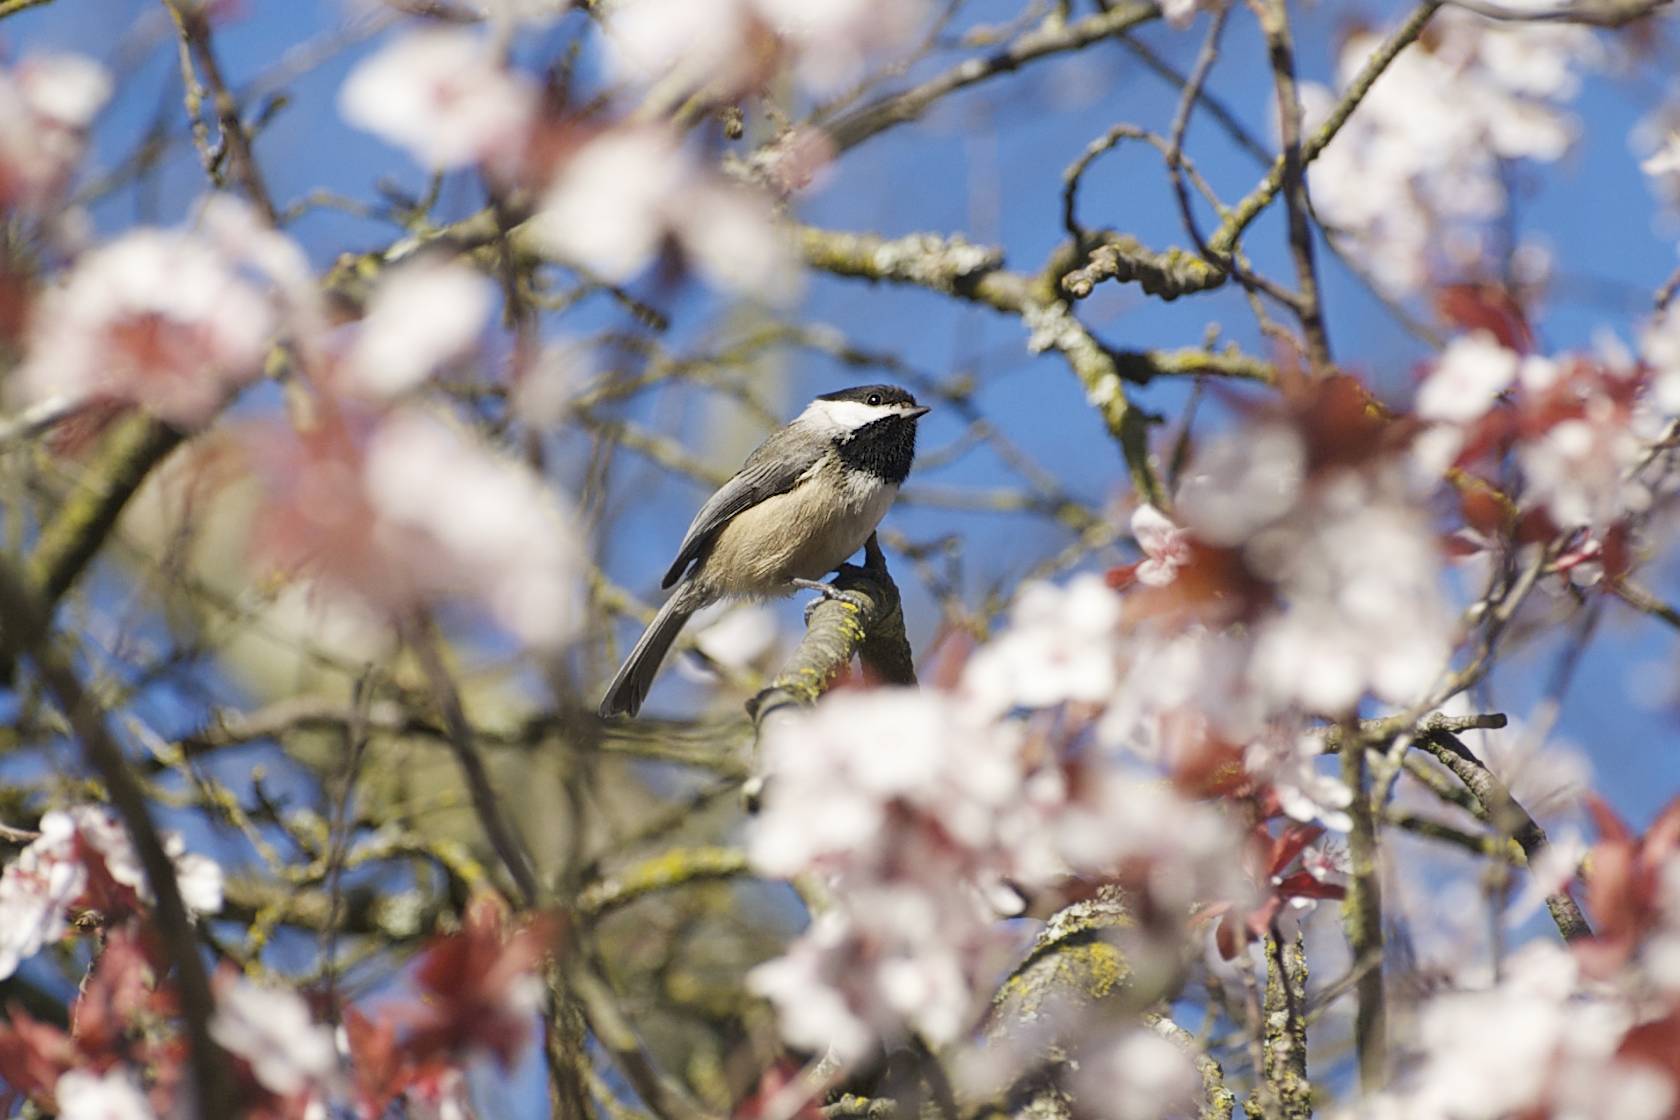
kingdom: Animalia
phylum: Chordata
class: Aves
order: Passeriformes
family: Paridae
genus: Poecile
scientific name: Poecile atricapillus
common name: Black-capped chickadee
